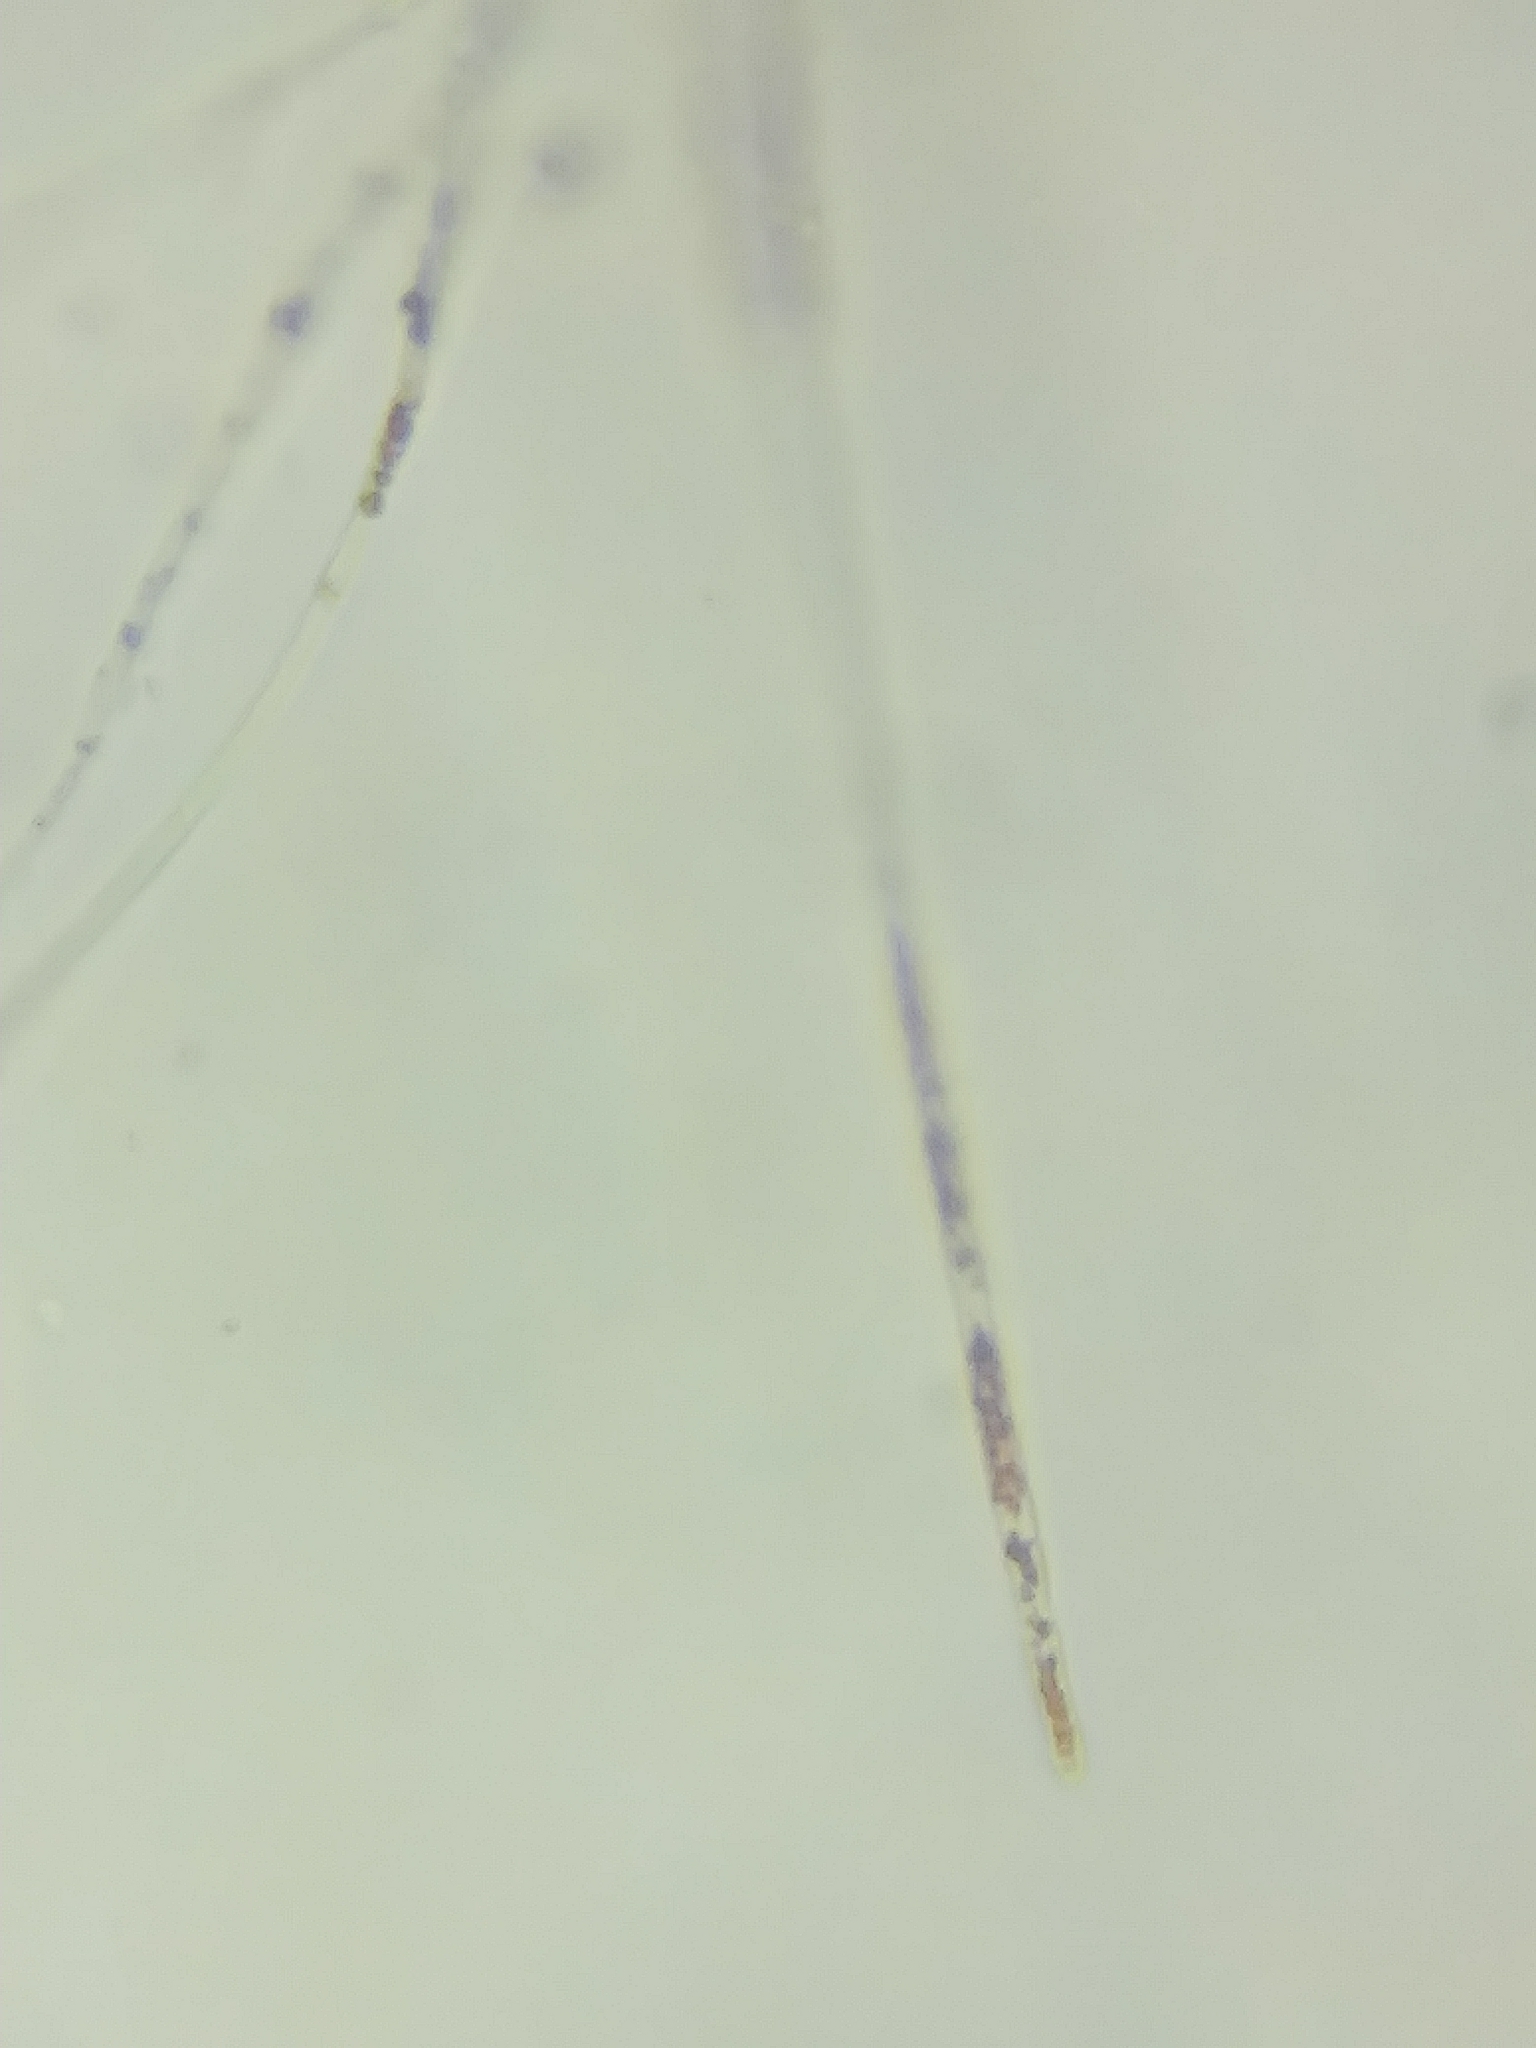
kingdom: Fungi
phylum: Ascomycota
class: Pezizomycetes
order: Pezizales
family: Sarcoscyphaceae
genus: Sarcoscypha
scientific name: Sarcoscypha austriaca
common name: Scarlet elfcup
